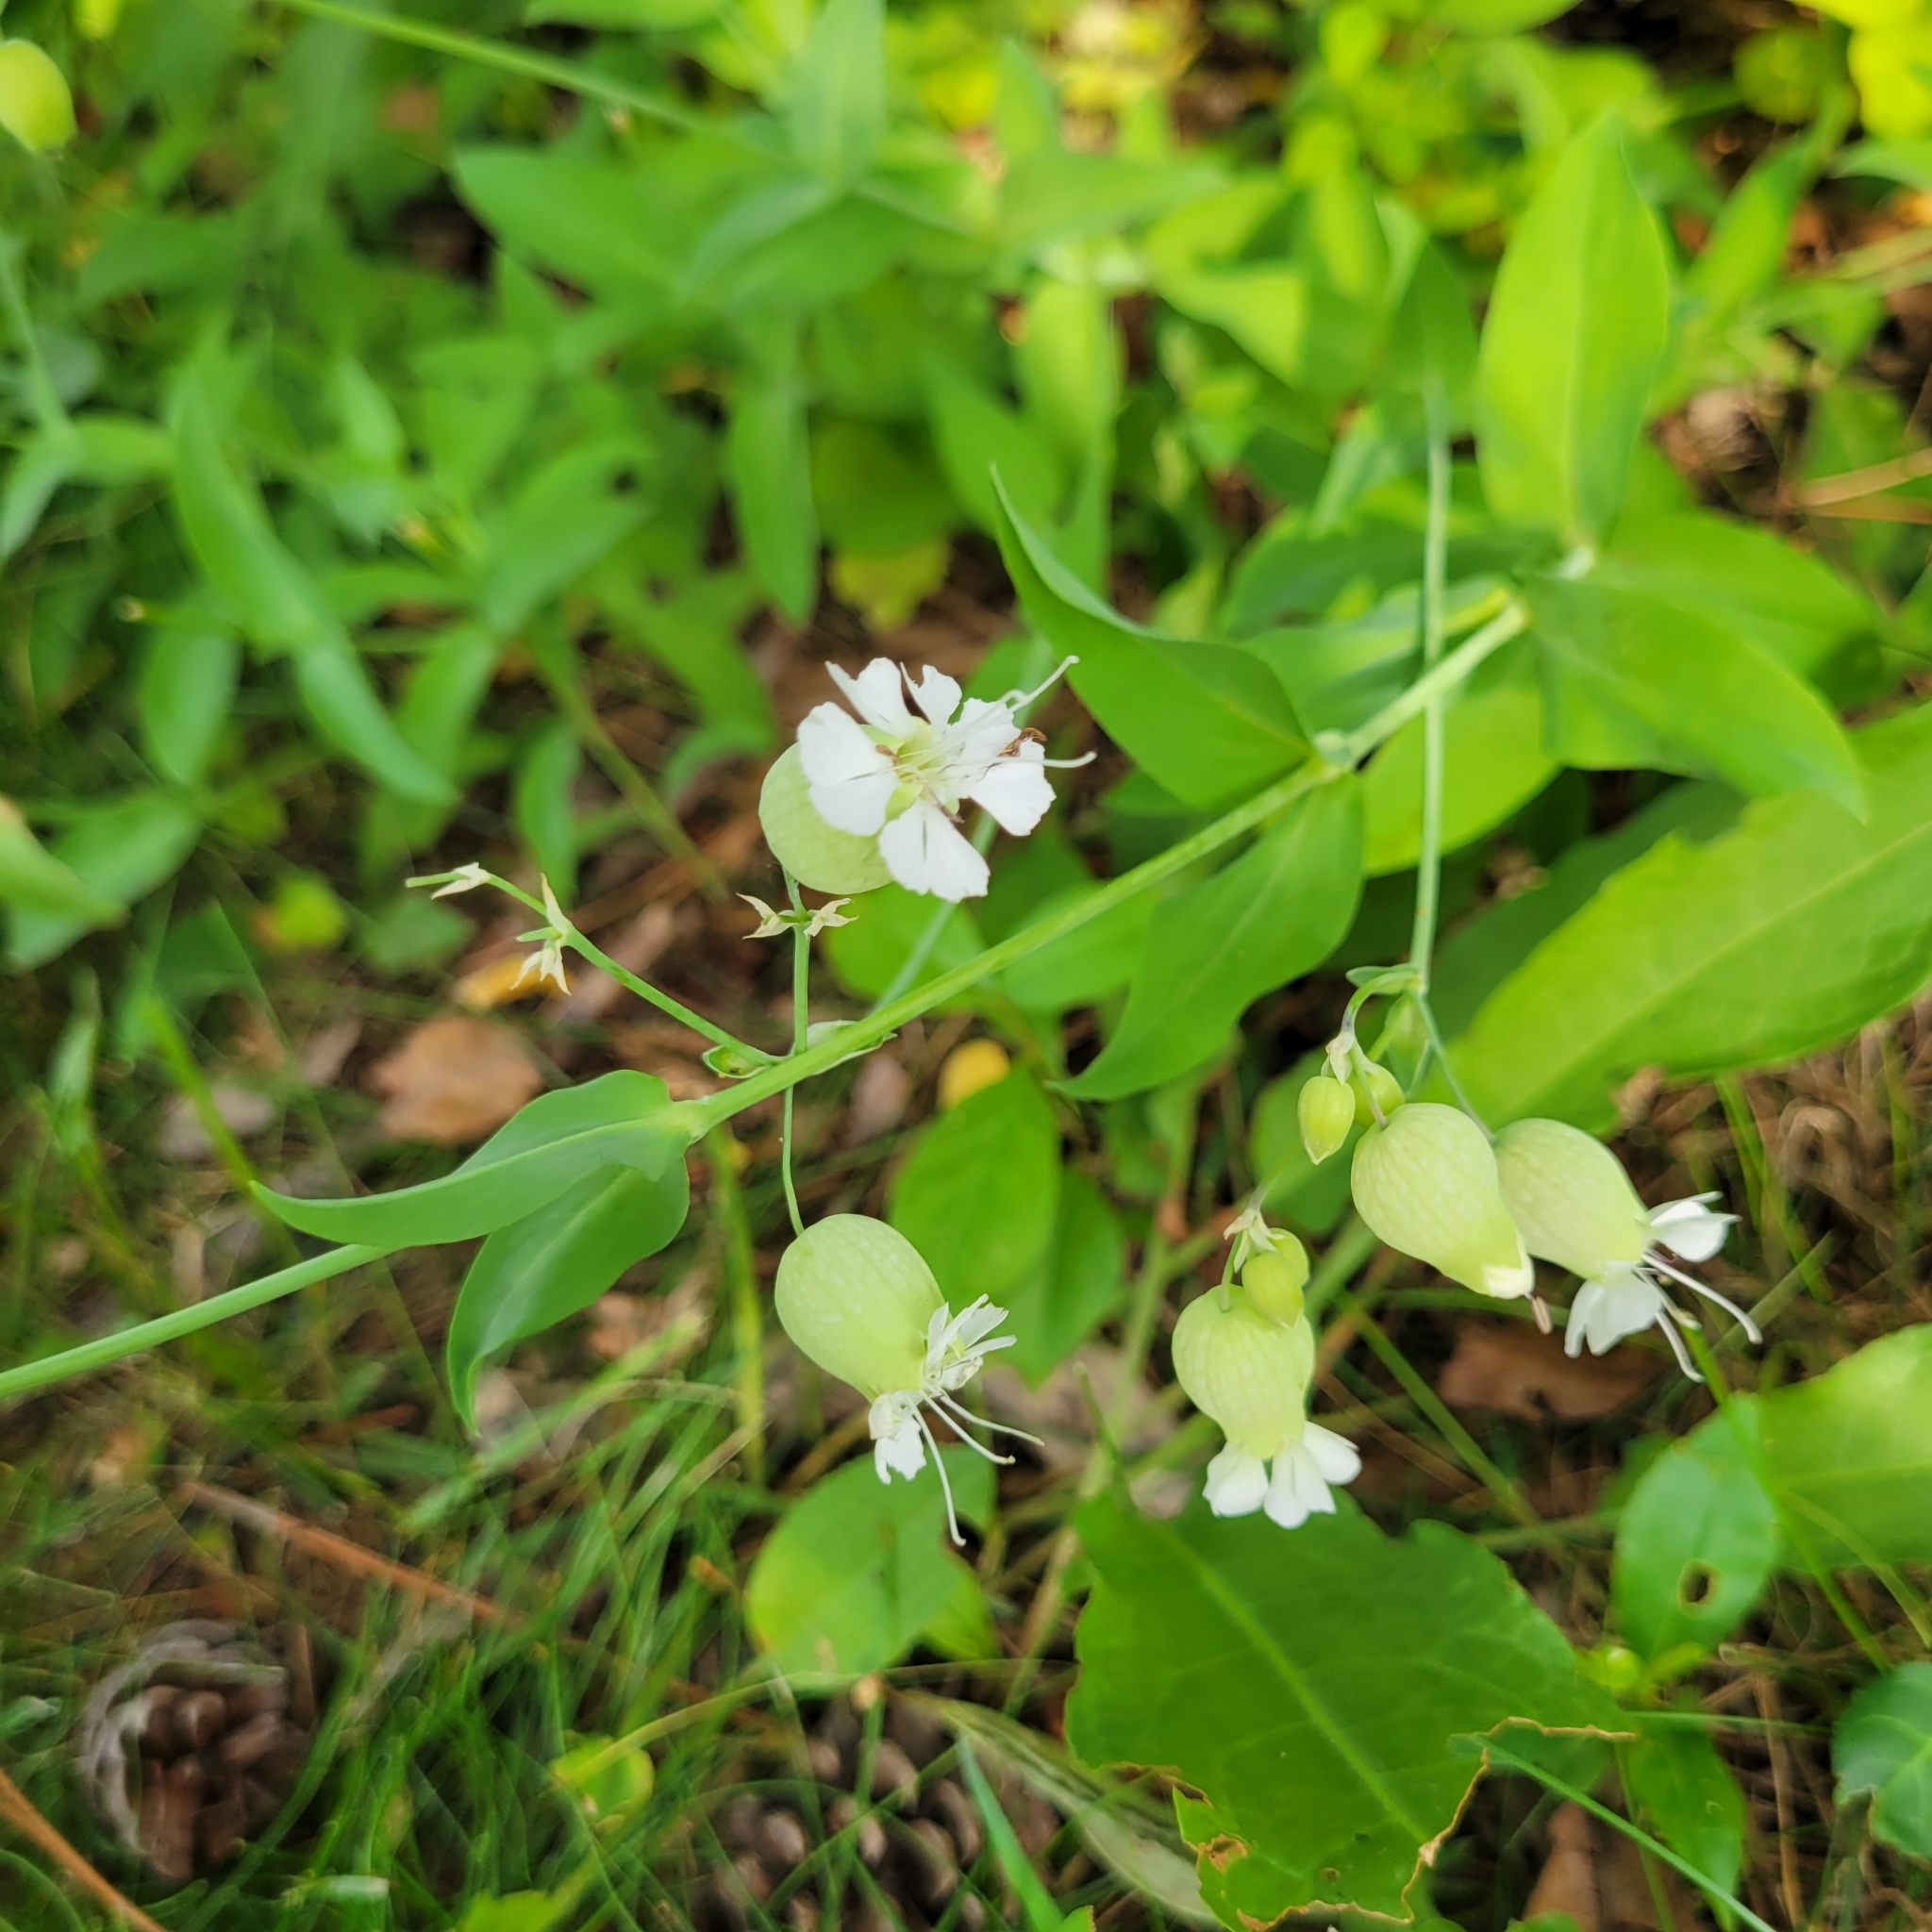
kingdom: Plantae
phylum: Tracheophyta
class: Magnoliopsida
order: Caryophyllales
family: Caryophyllaceae
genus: Silene
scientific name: Silene vulgaris
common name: Bladder campion
